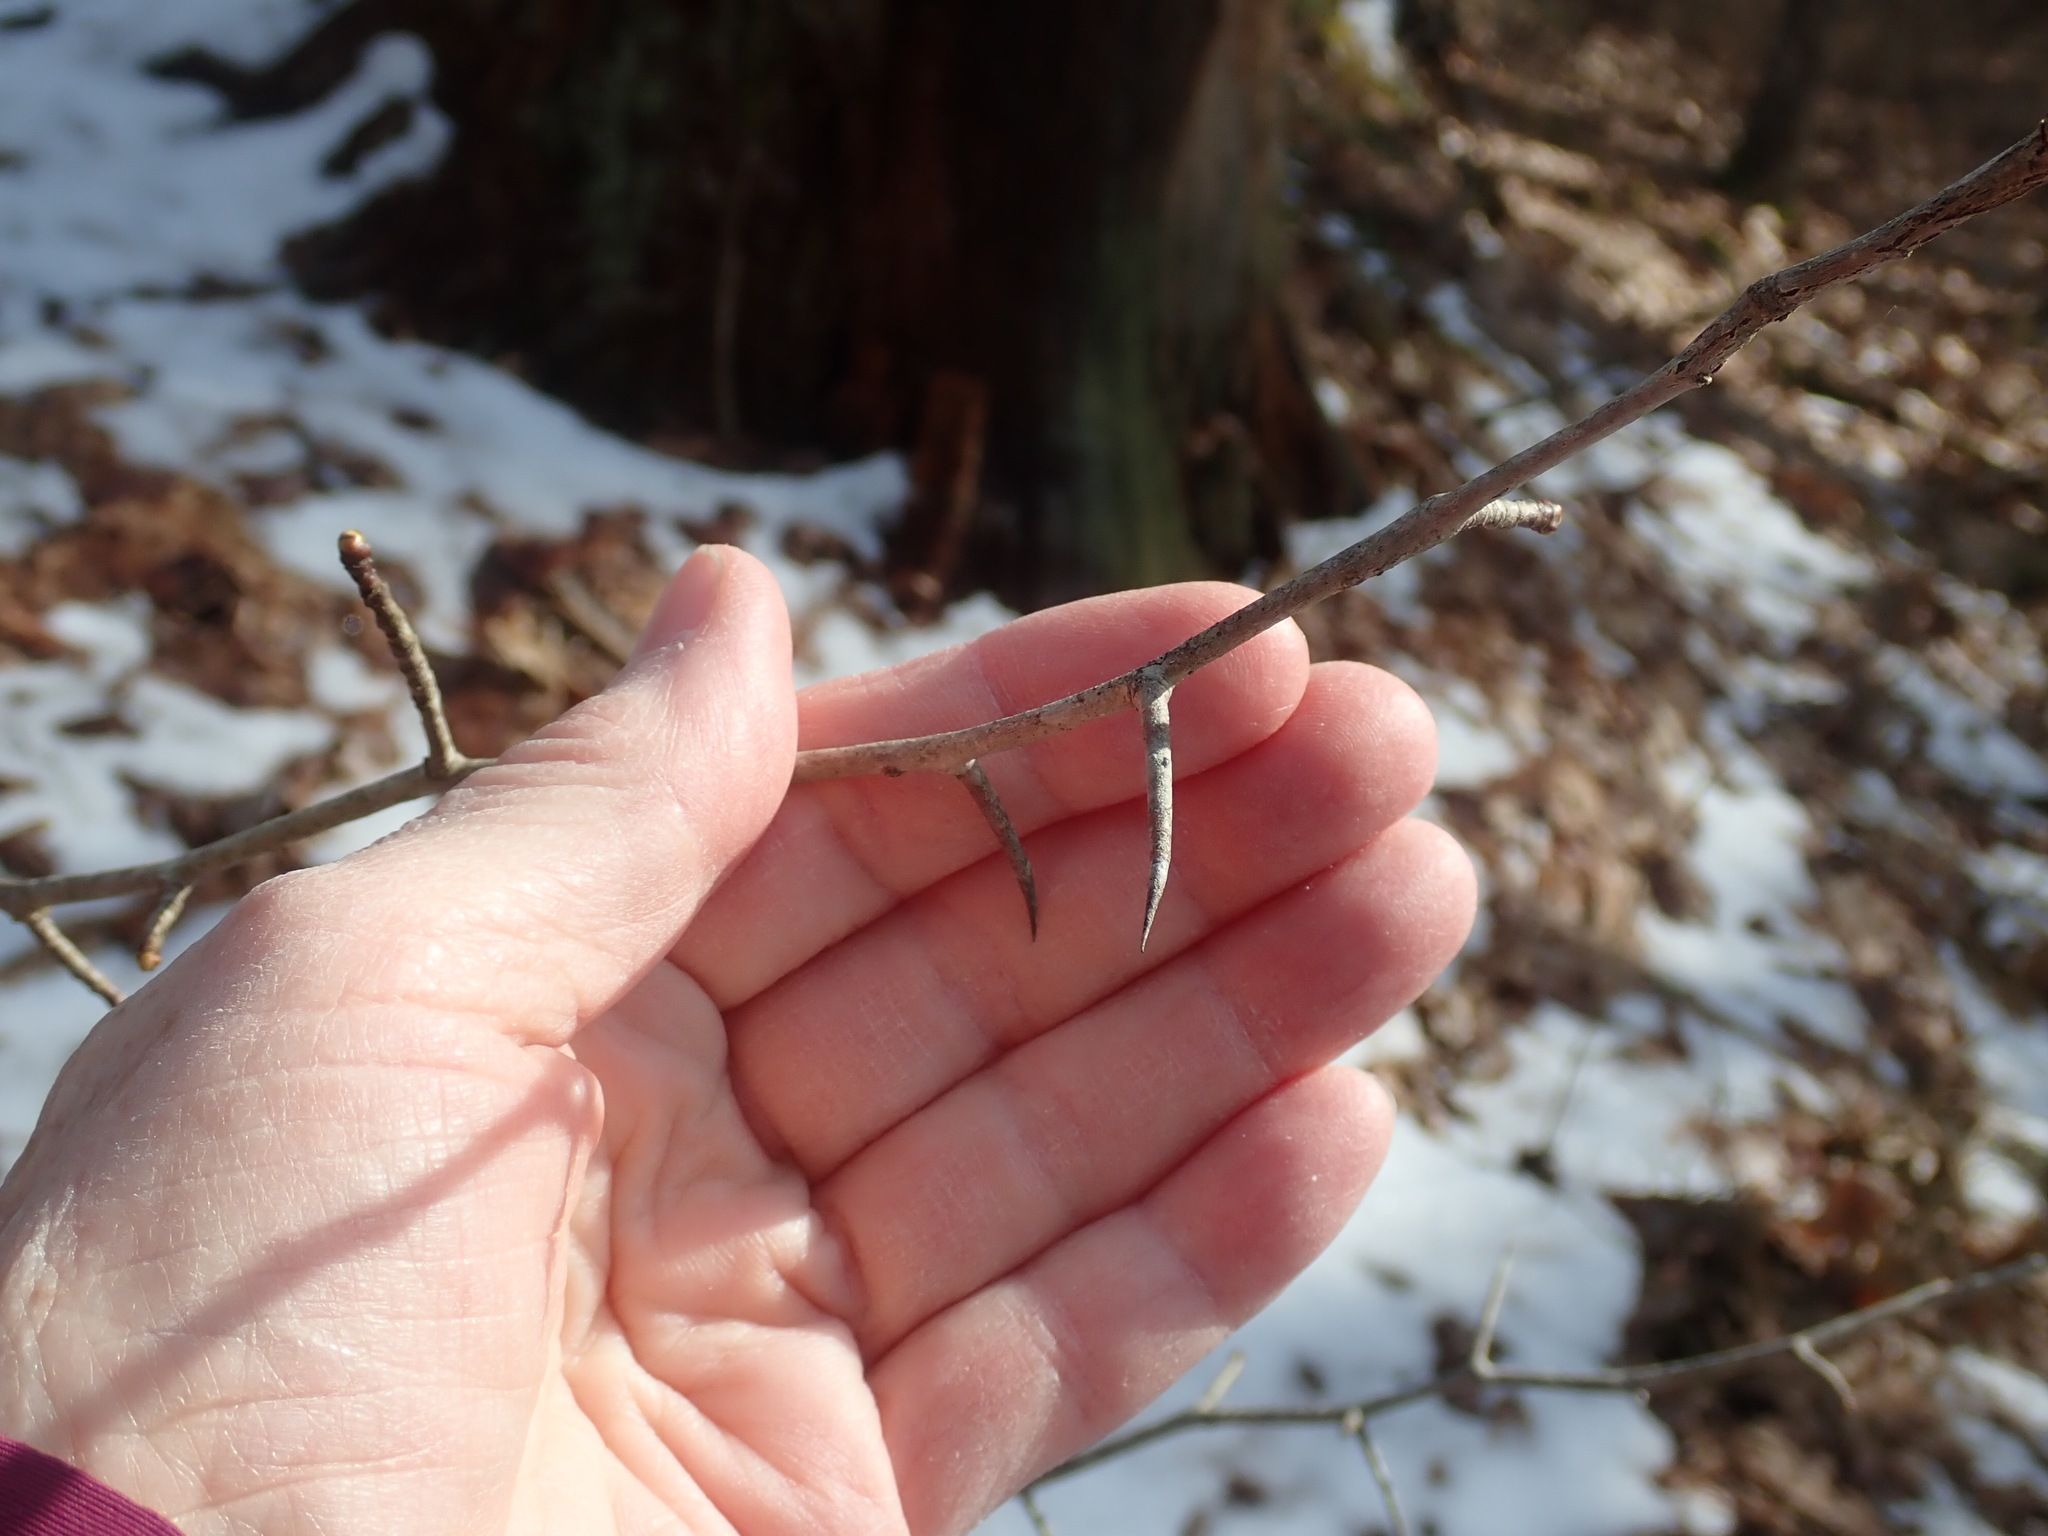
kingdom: Plantae
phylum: Tracheophyta
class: Magnoliopsida
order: Rosales
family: Rosaceae
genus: Crataegus
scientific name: Crataegus
